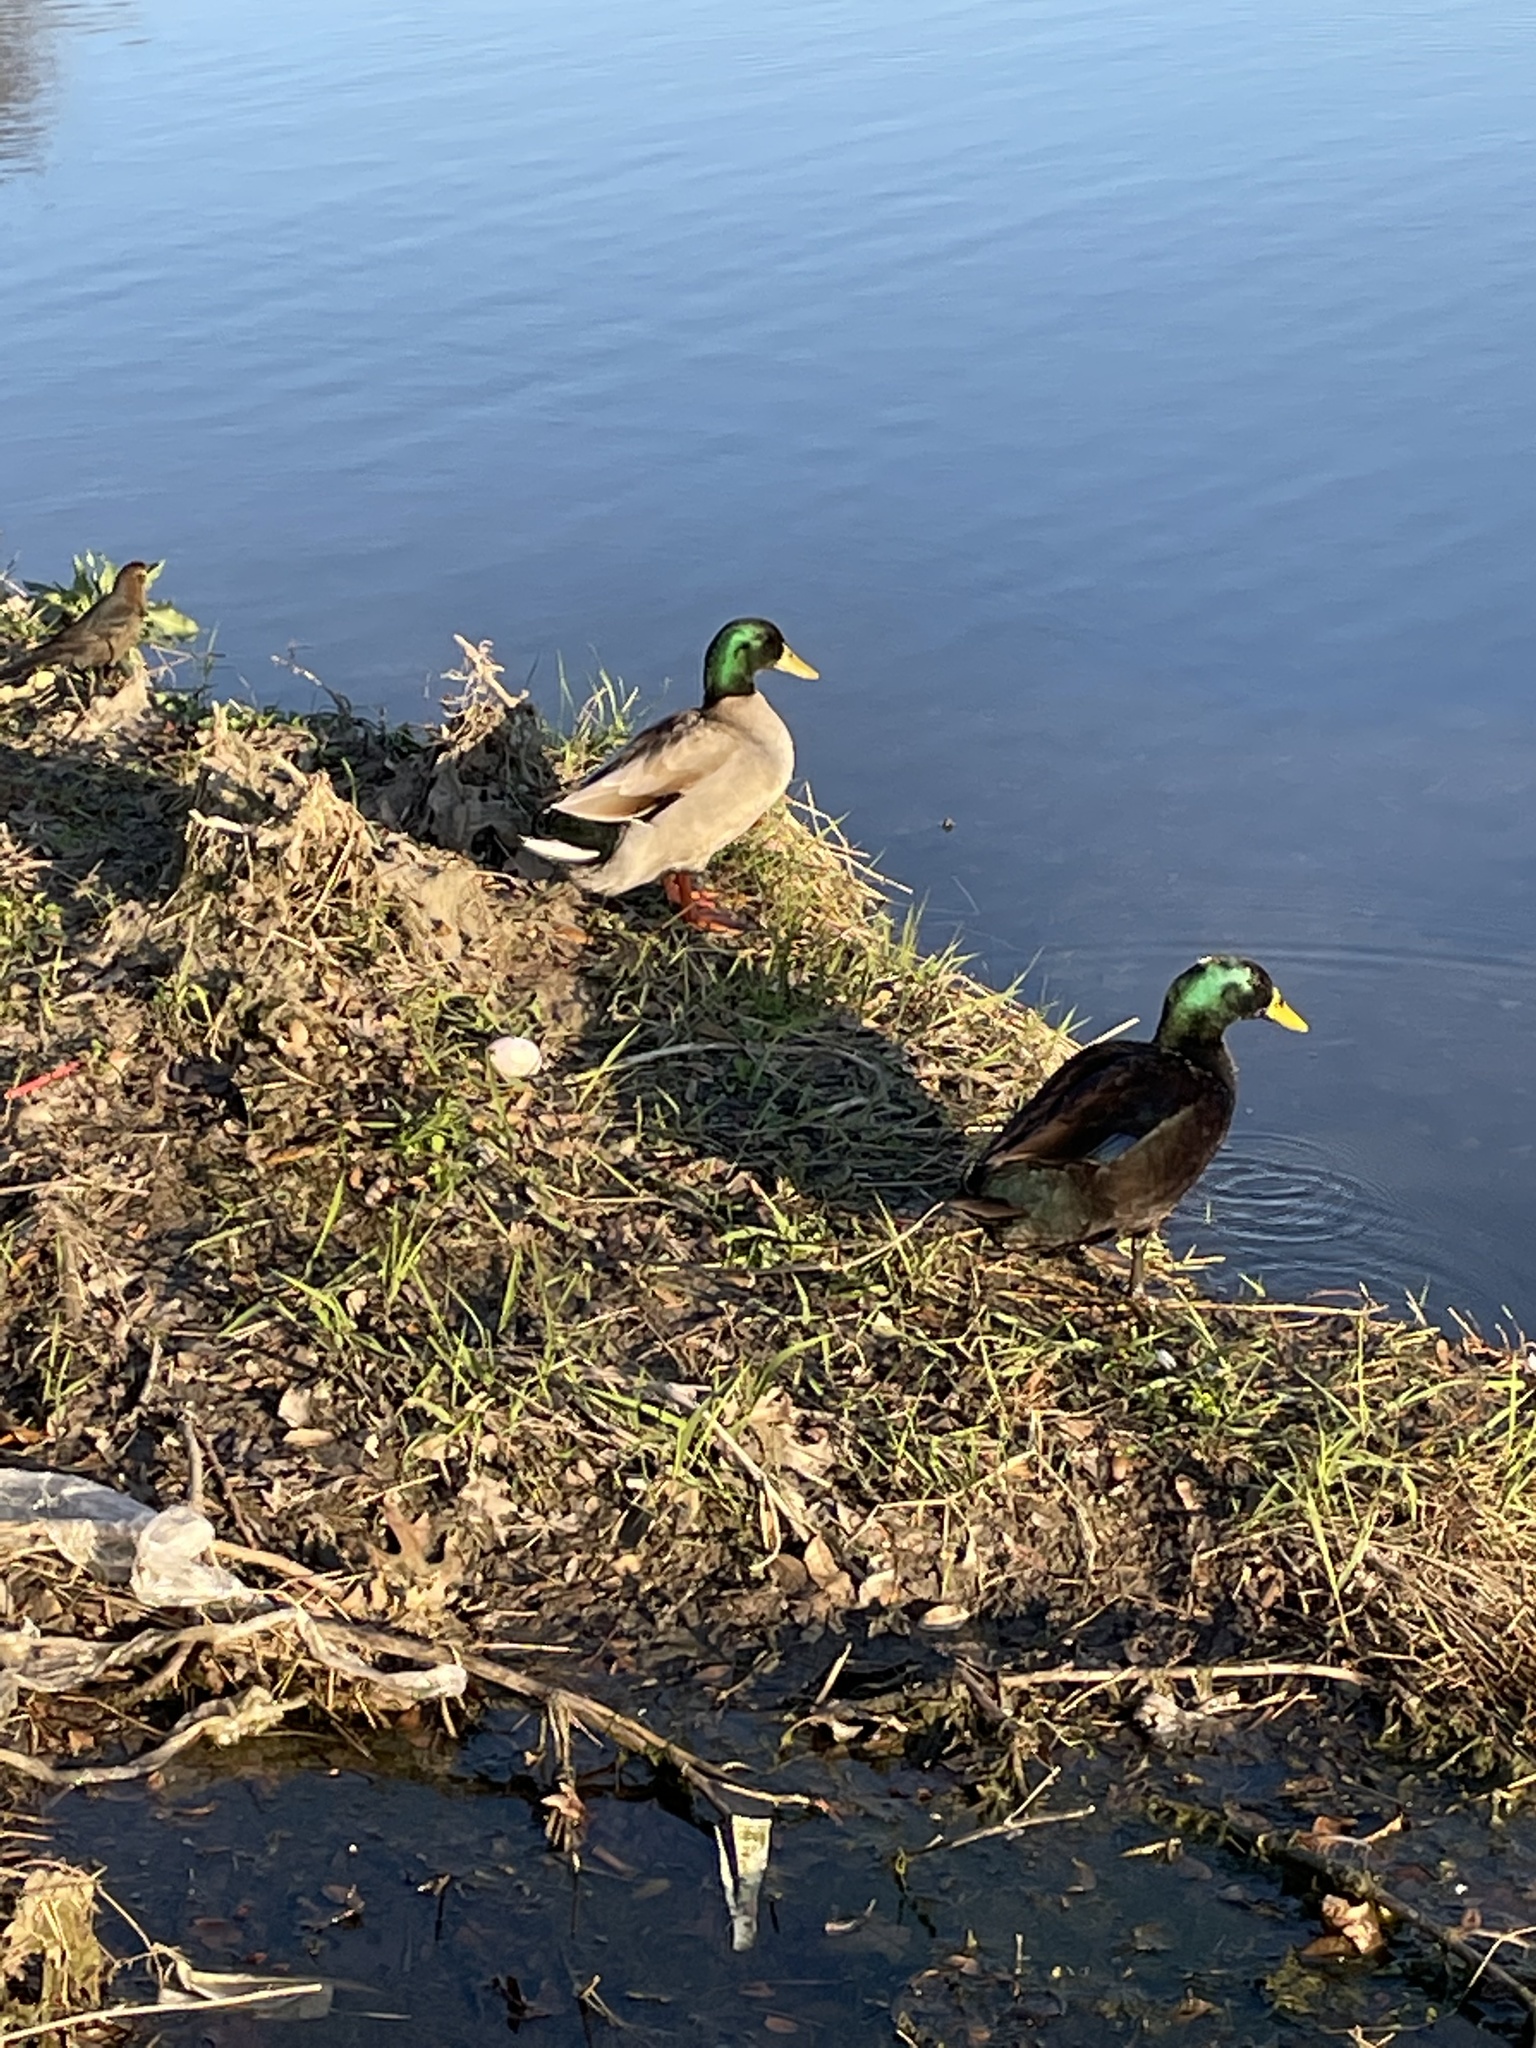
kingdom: Animalia
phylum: Chordata
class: Aves
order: Anseriformes
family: Anatidae
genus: Anas
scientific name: Anas platyrhynchos
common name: Mallard
